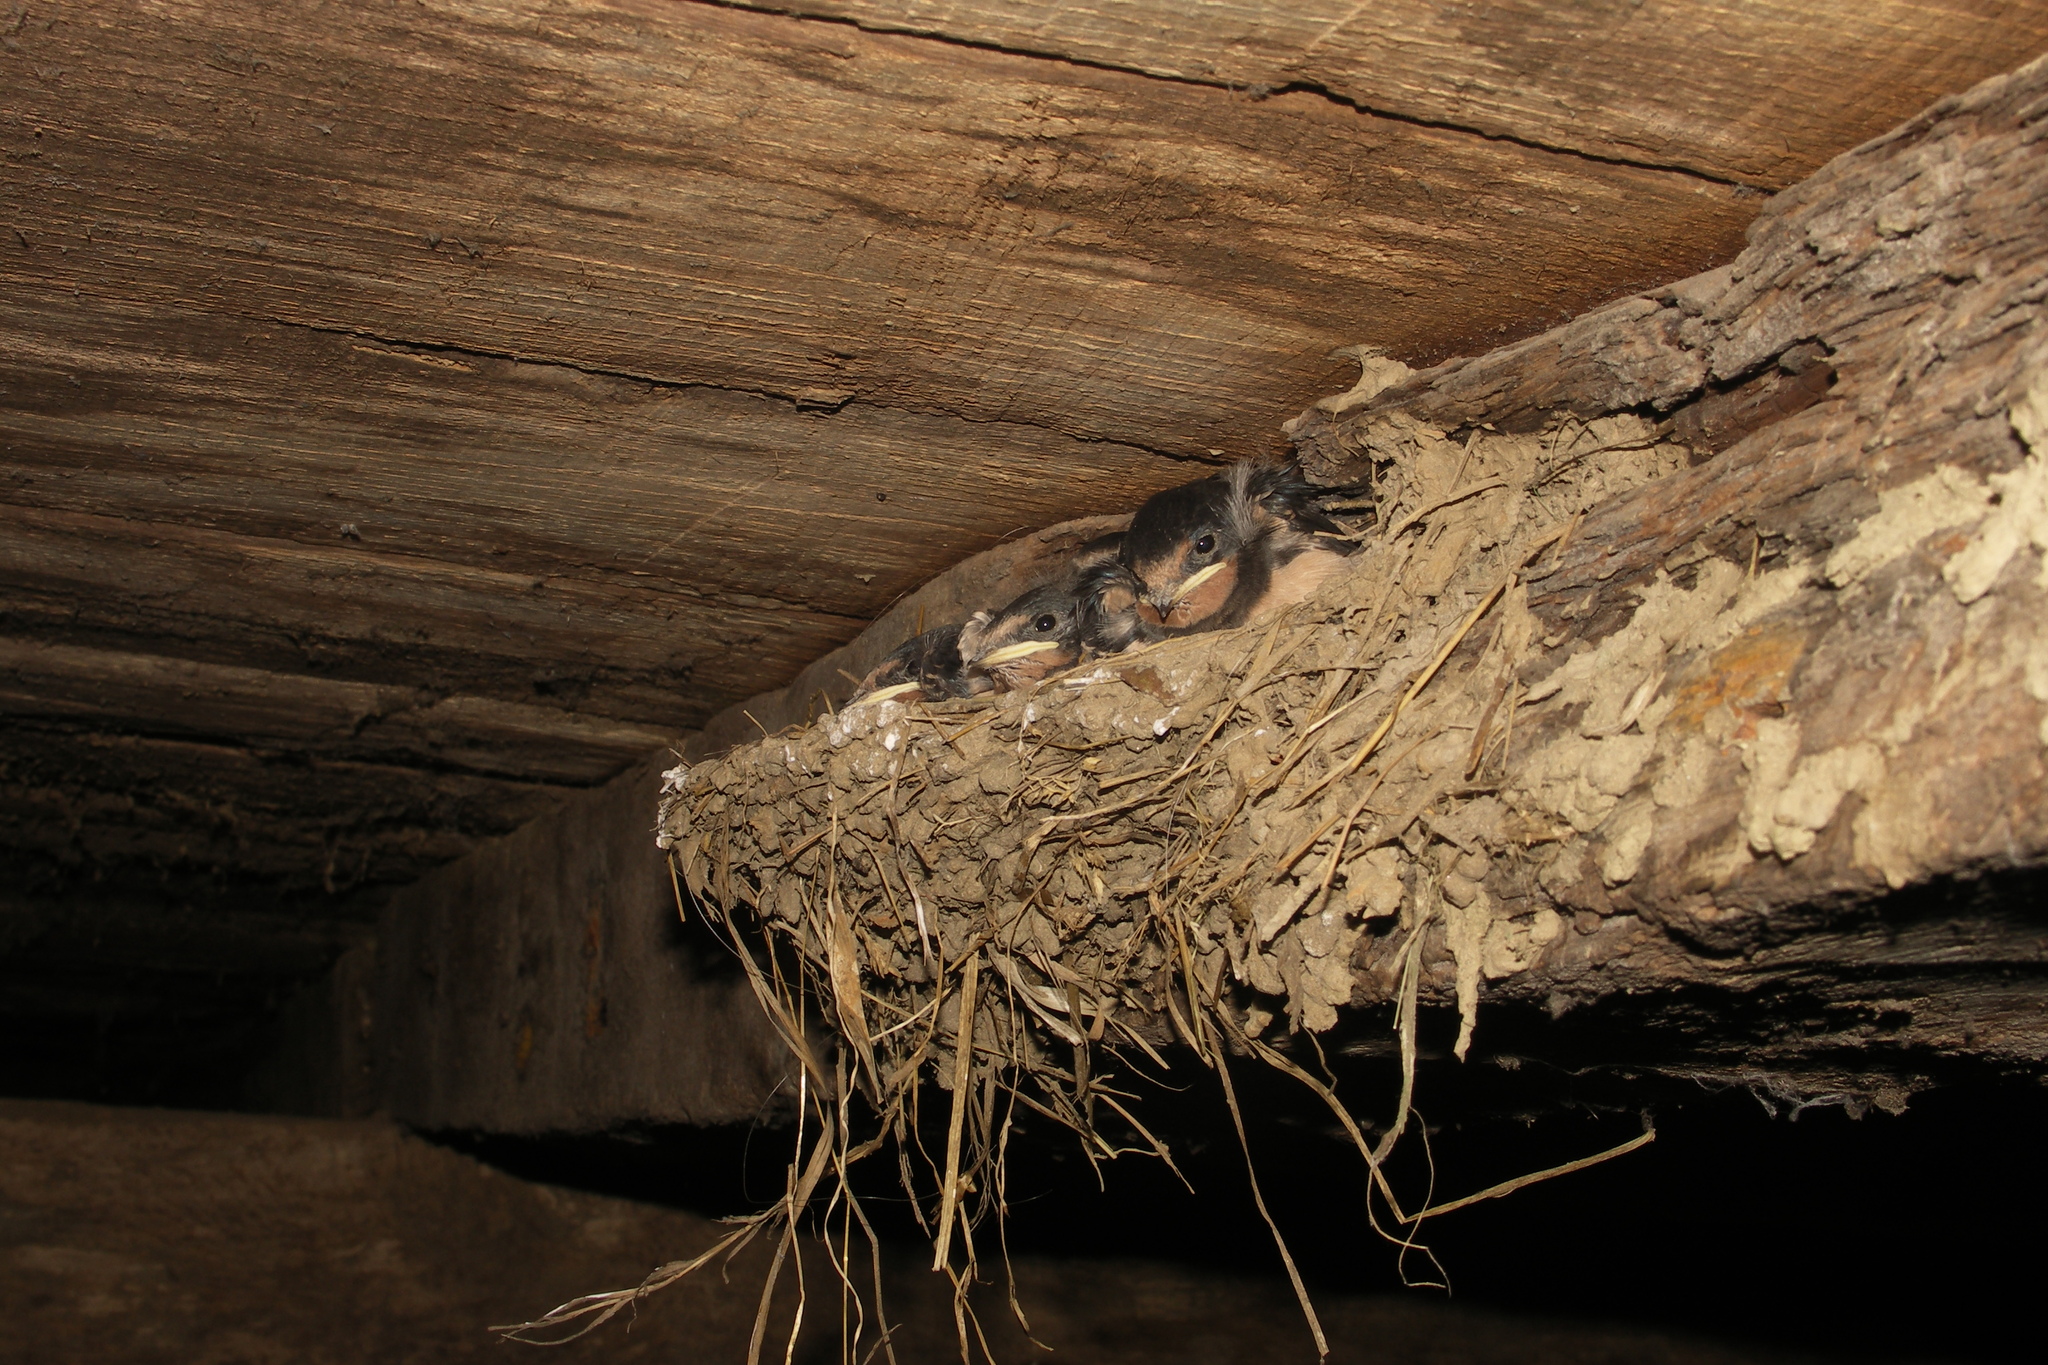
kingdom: Animalia
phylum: Chordata
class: Aves
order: Passeriformes
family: Hirundinidae
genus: Hirundo
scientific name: Hirundo rustica
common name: Barn swallow
